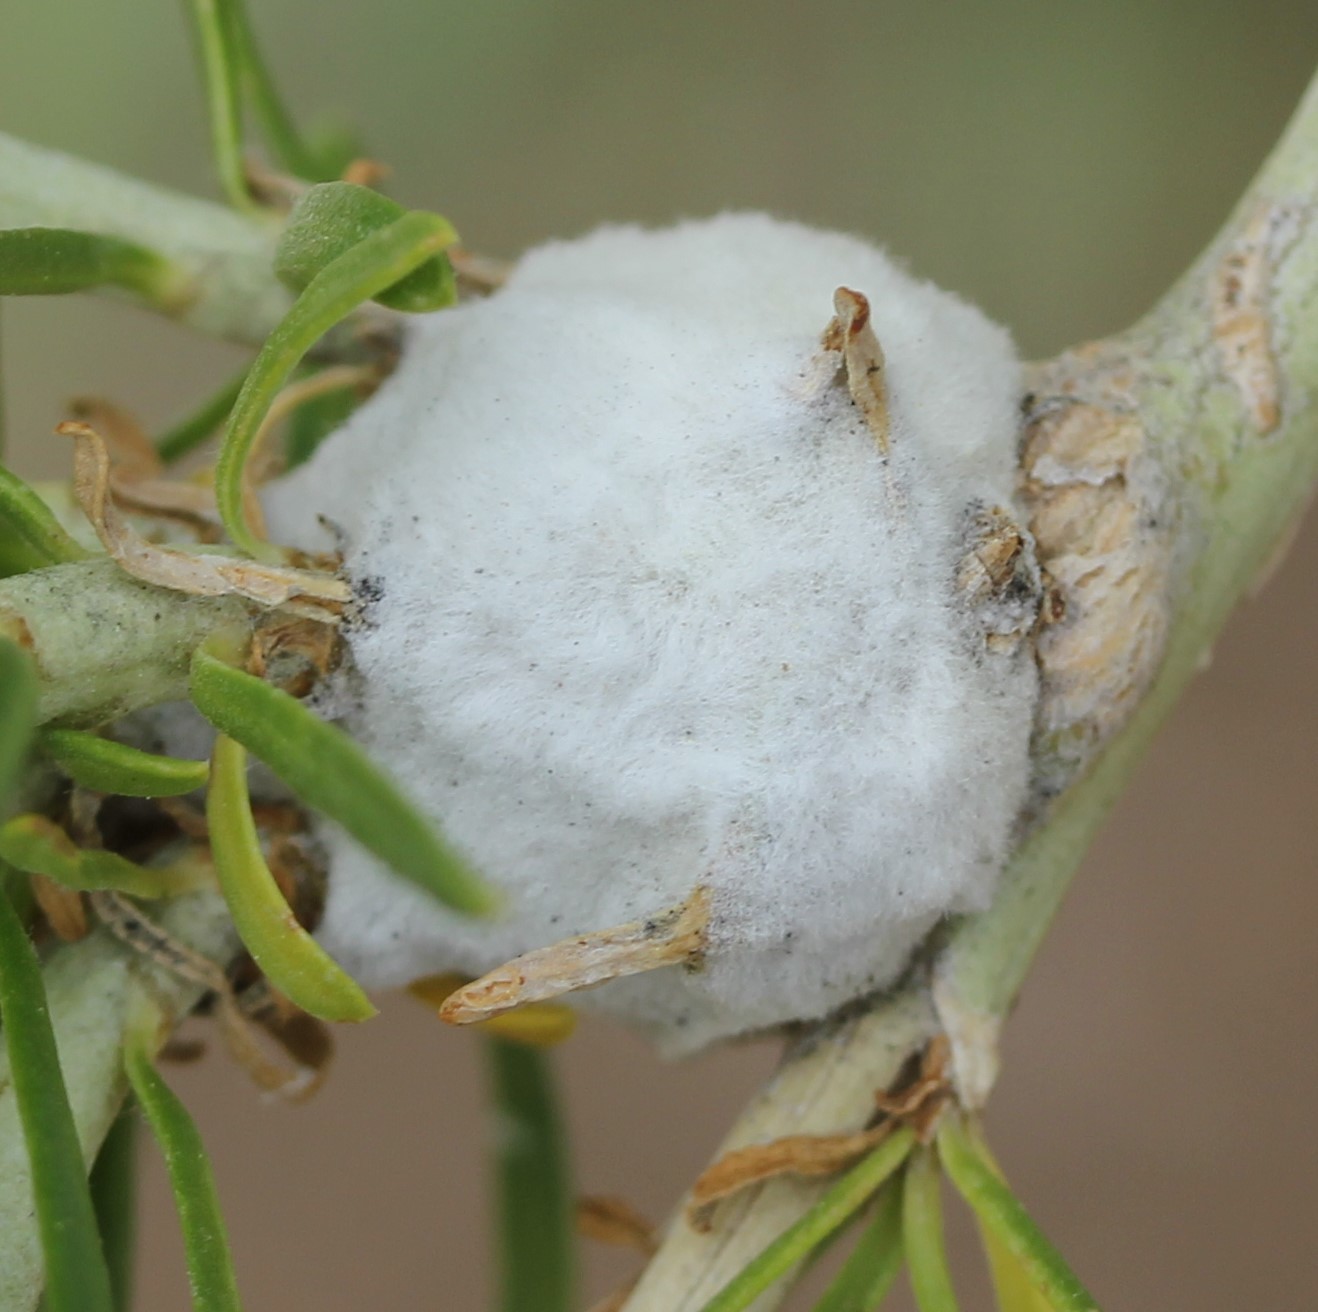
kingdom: Animalia
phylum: Arthropoda
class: Insecta
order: Diptera
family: Tephritidae
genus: Aciurina
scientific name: Aciurina bigeloviae
